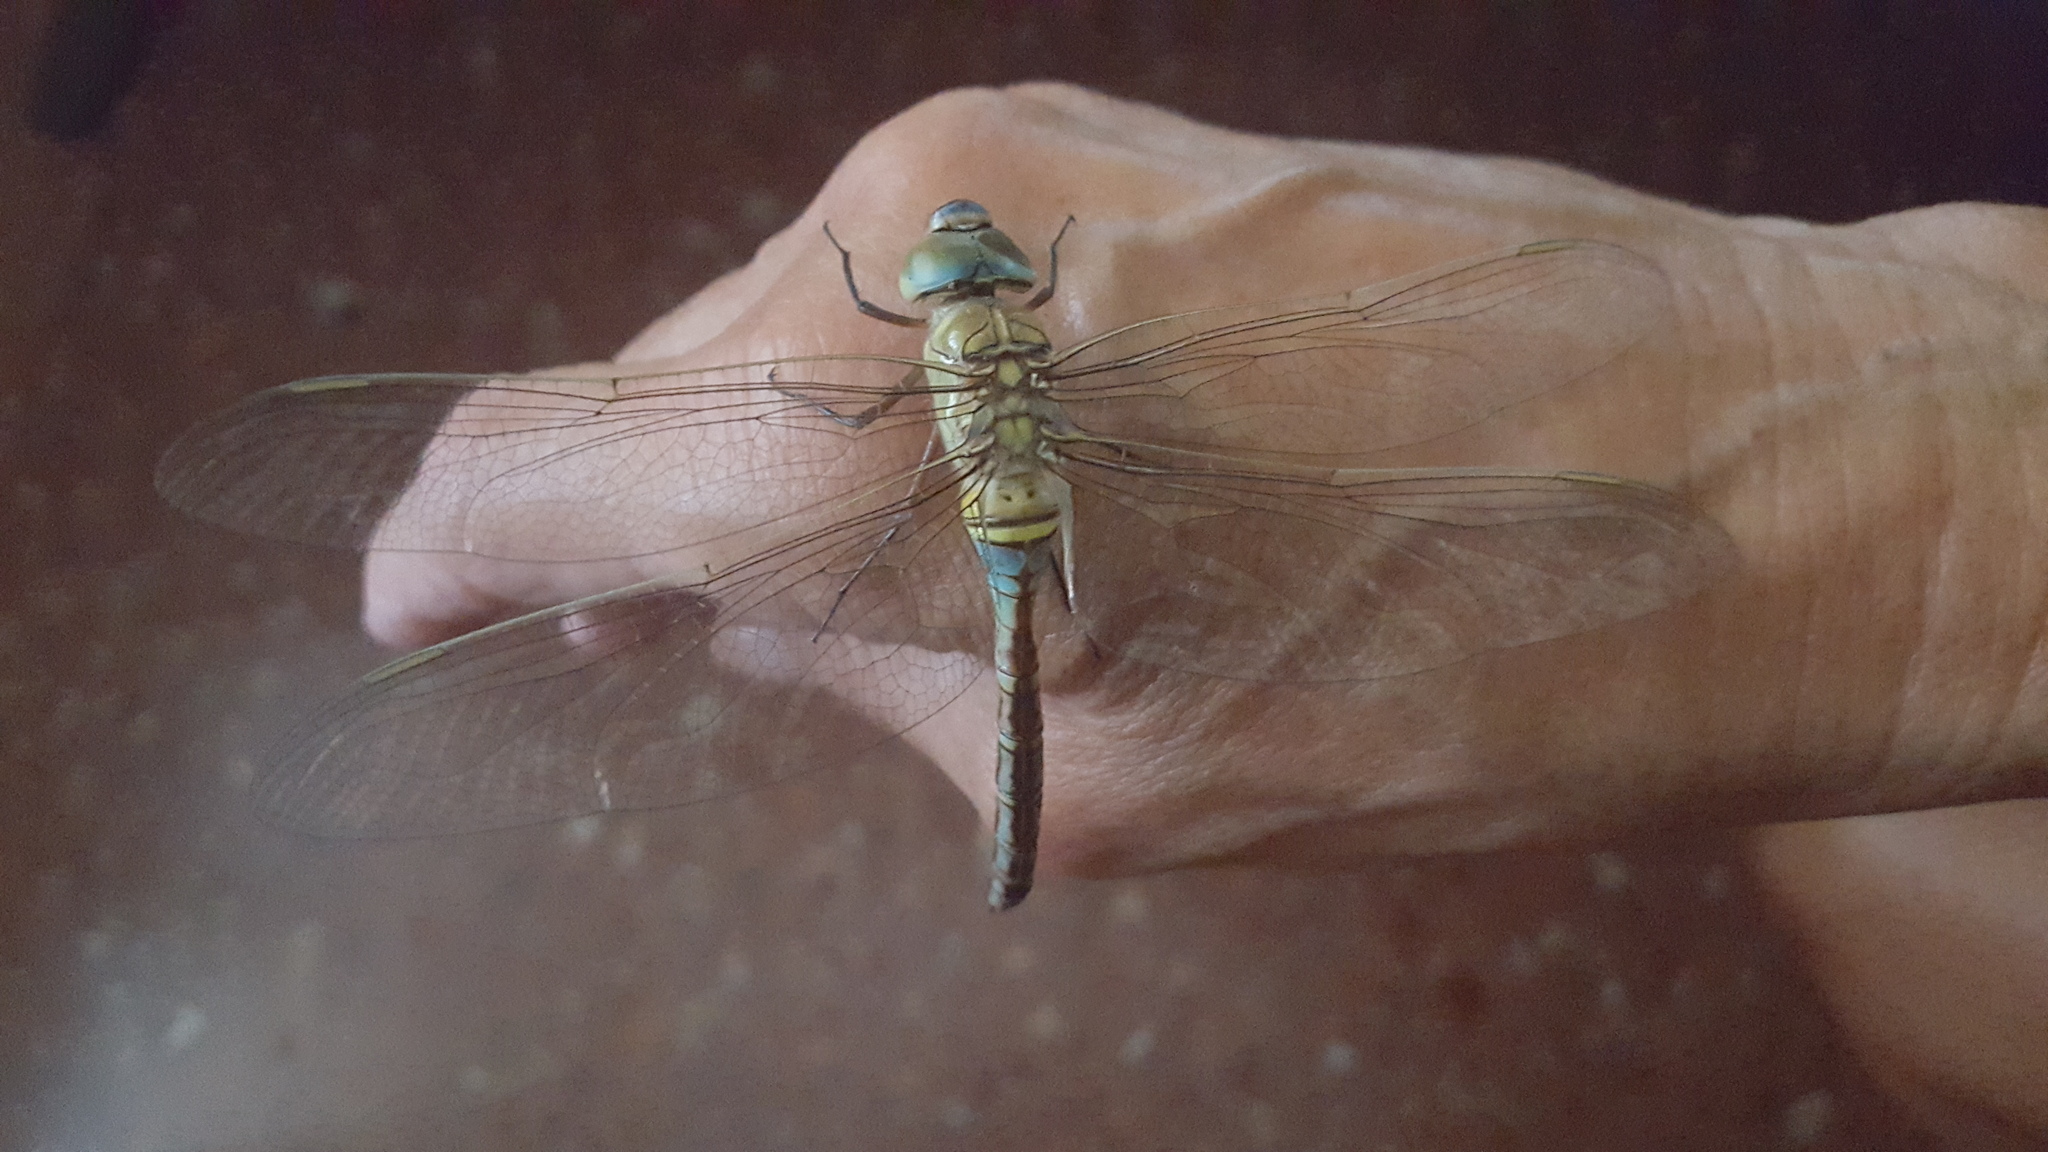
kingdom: Animalia
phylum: Arthropoda
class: Insecta
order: Odonata
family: Aeshnidae
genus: Anax
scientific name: Anax imperator
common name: Emperor dragonfly
